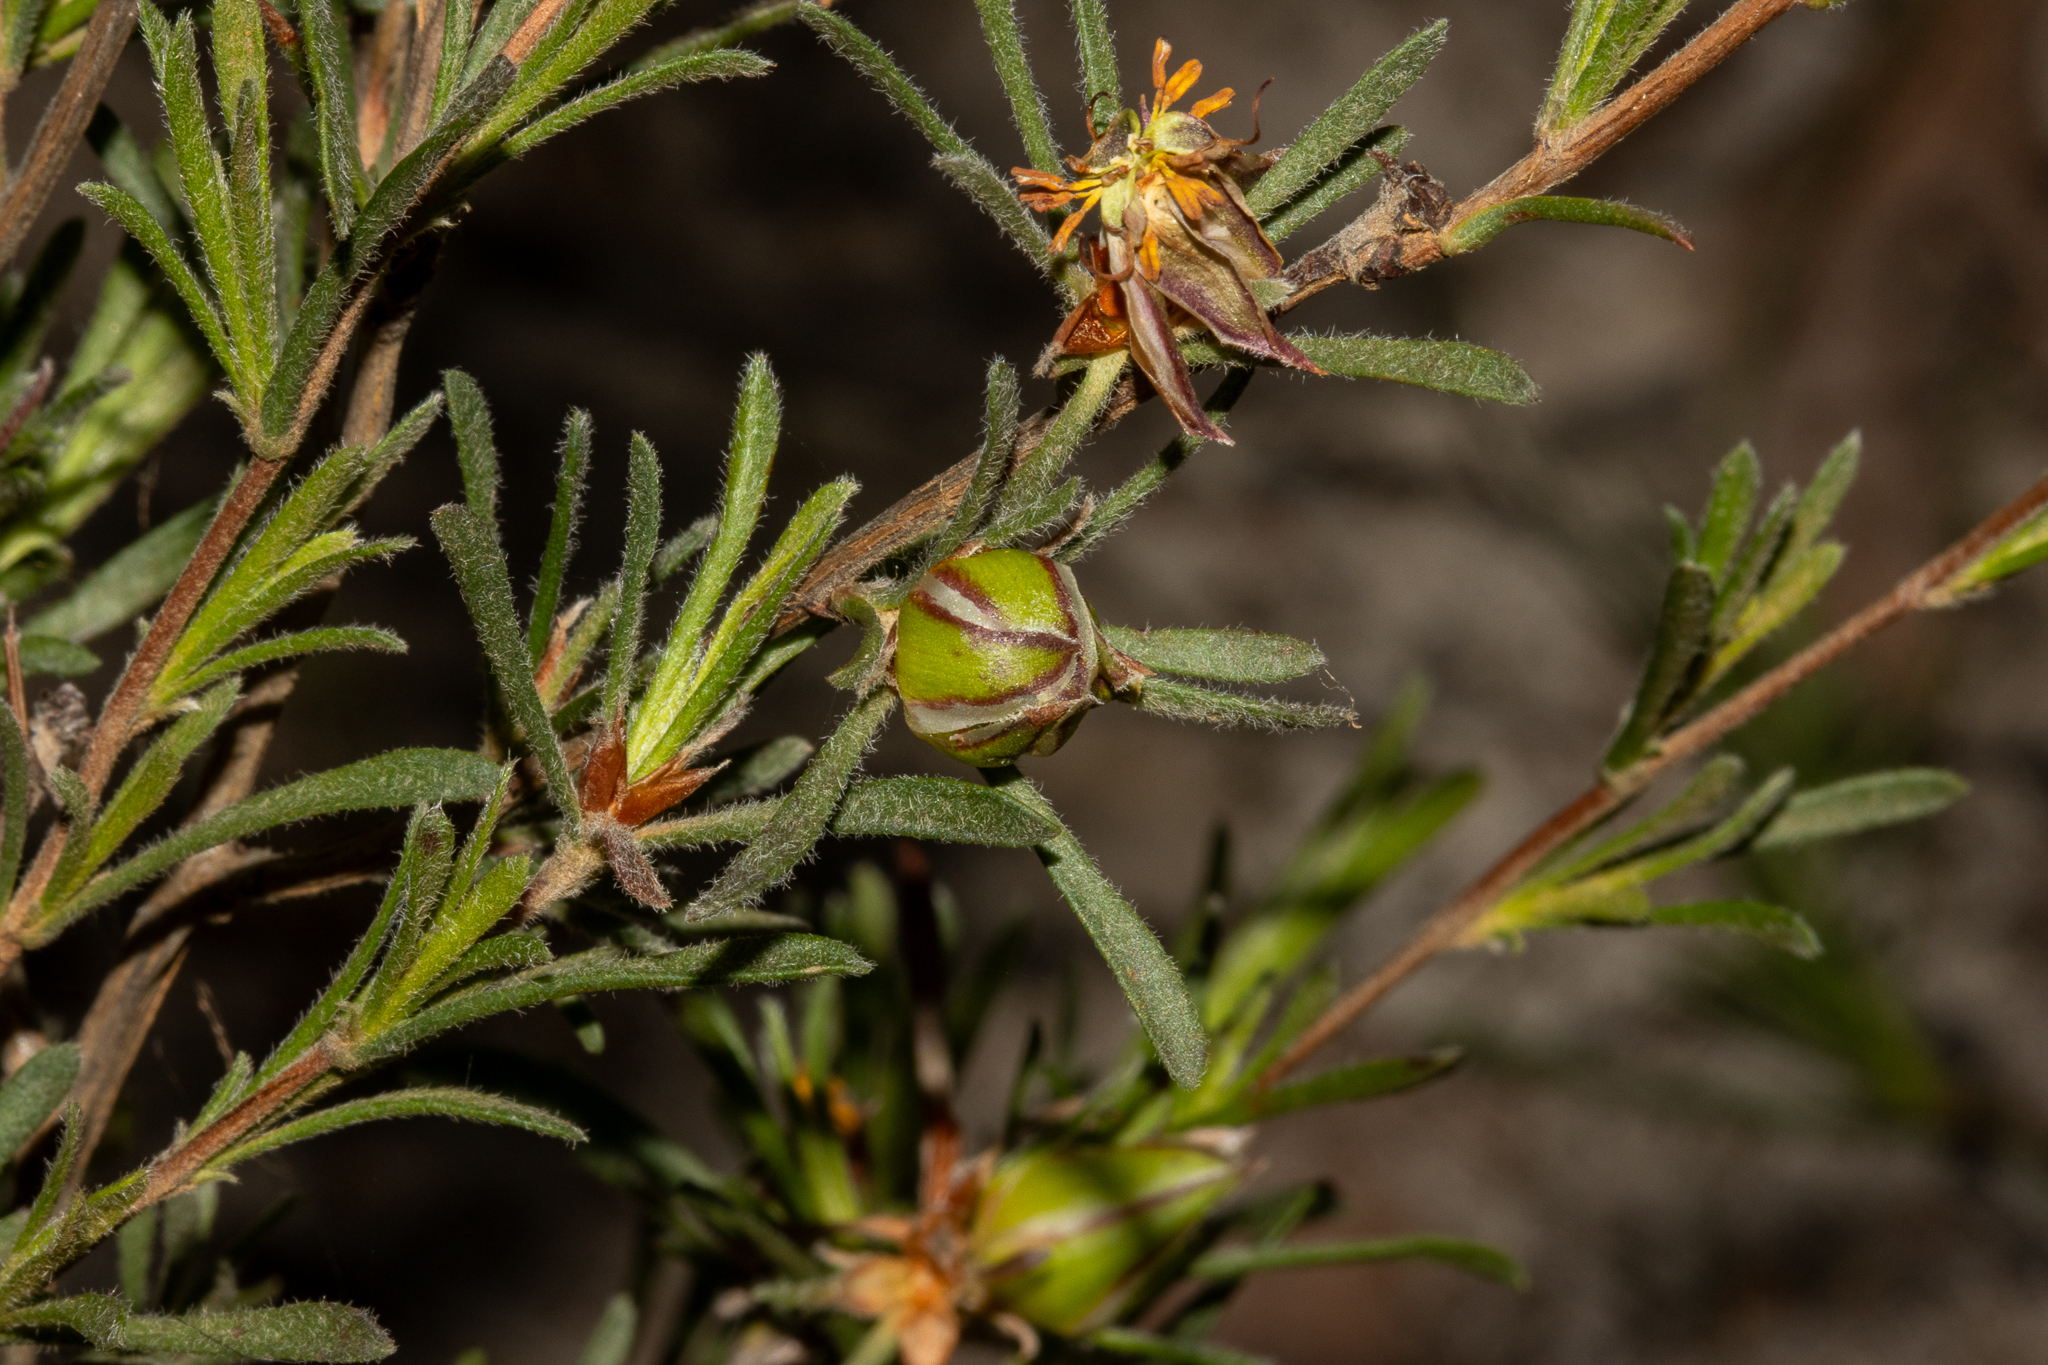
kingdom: Plantae
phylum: Tracheophyta
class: Magnoliopsida
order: Dilleniales
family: Dilleniaceae
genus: Hibbertia
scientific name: Hibbertia virgata
